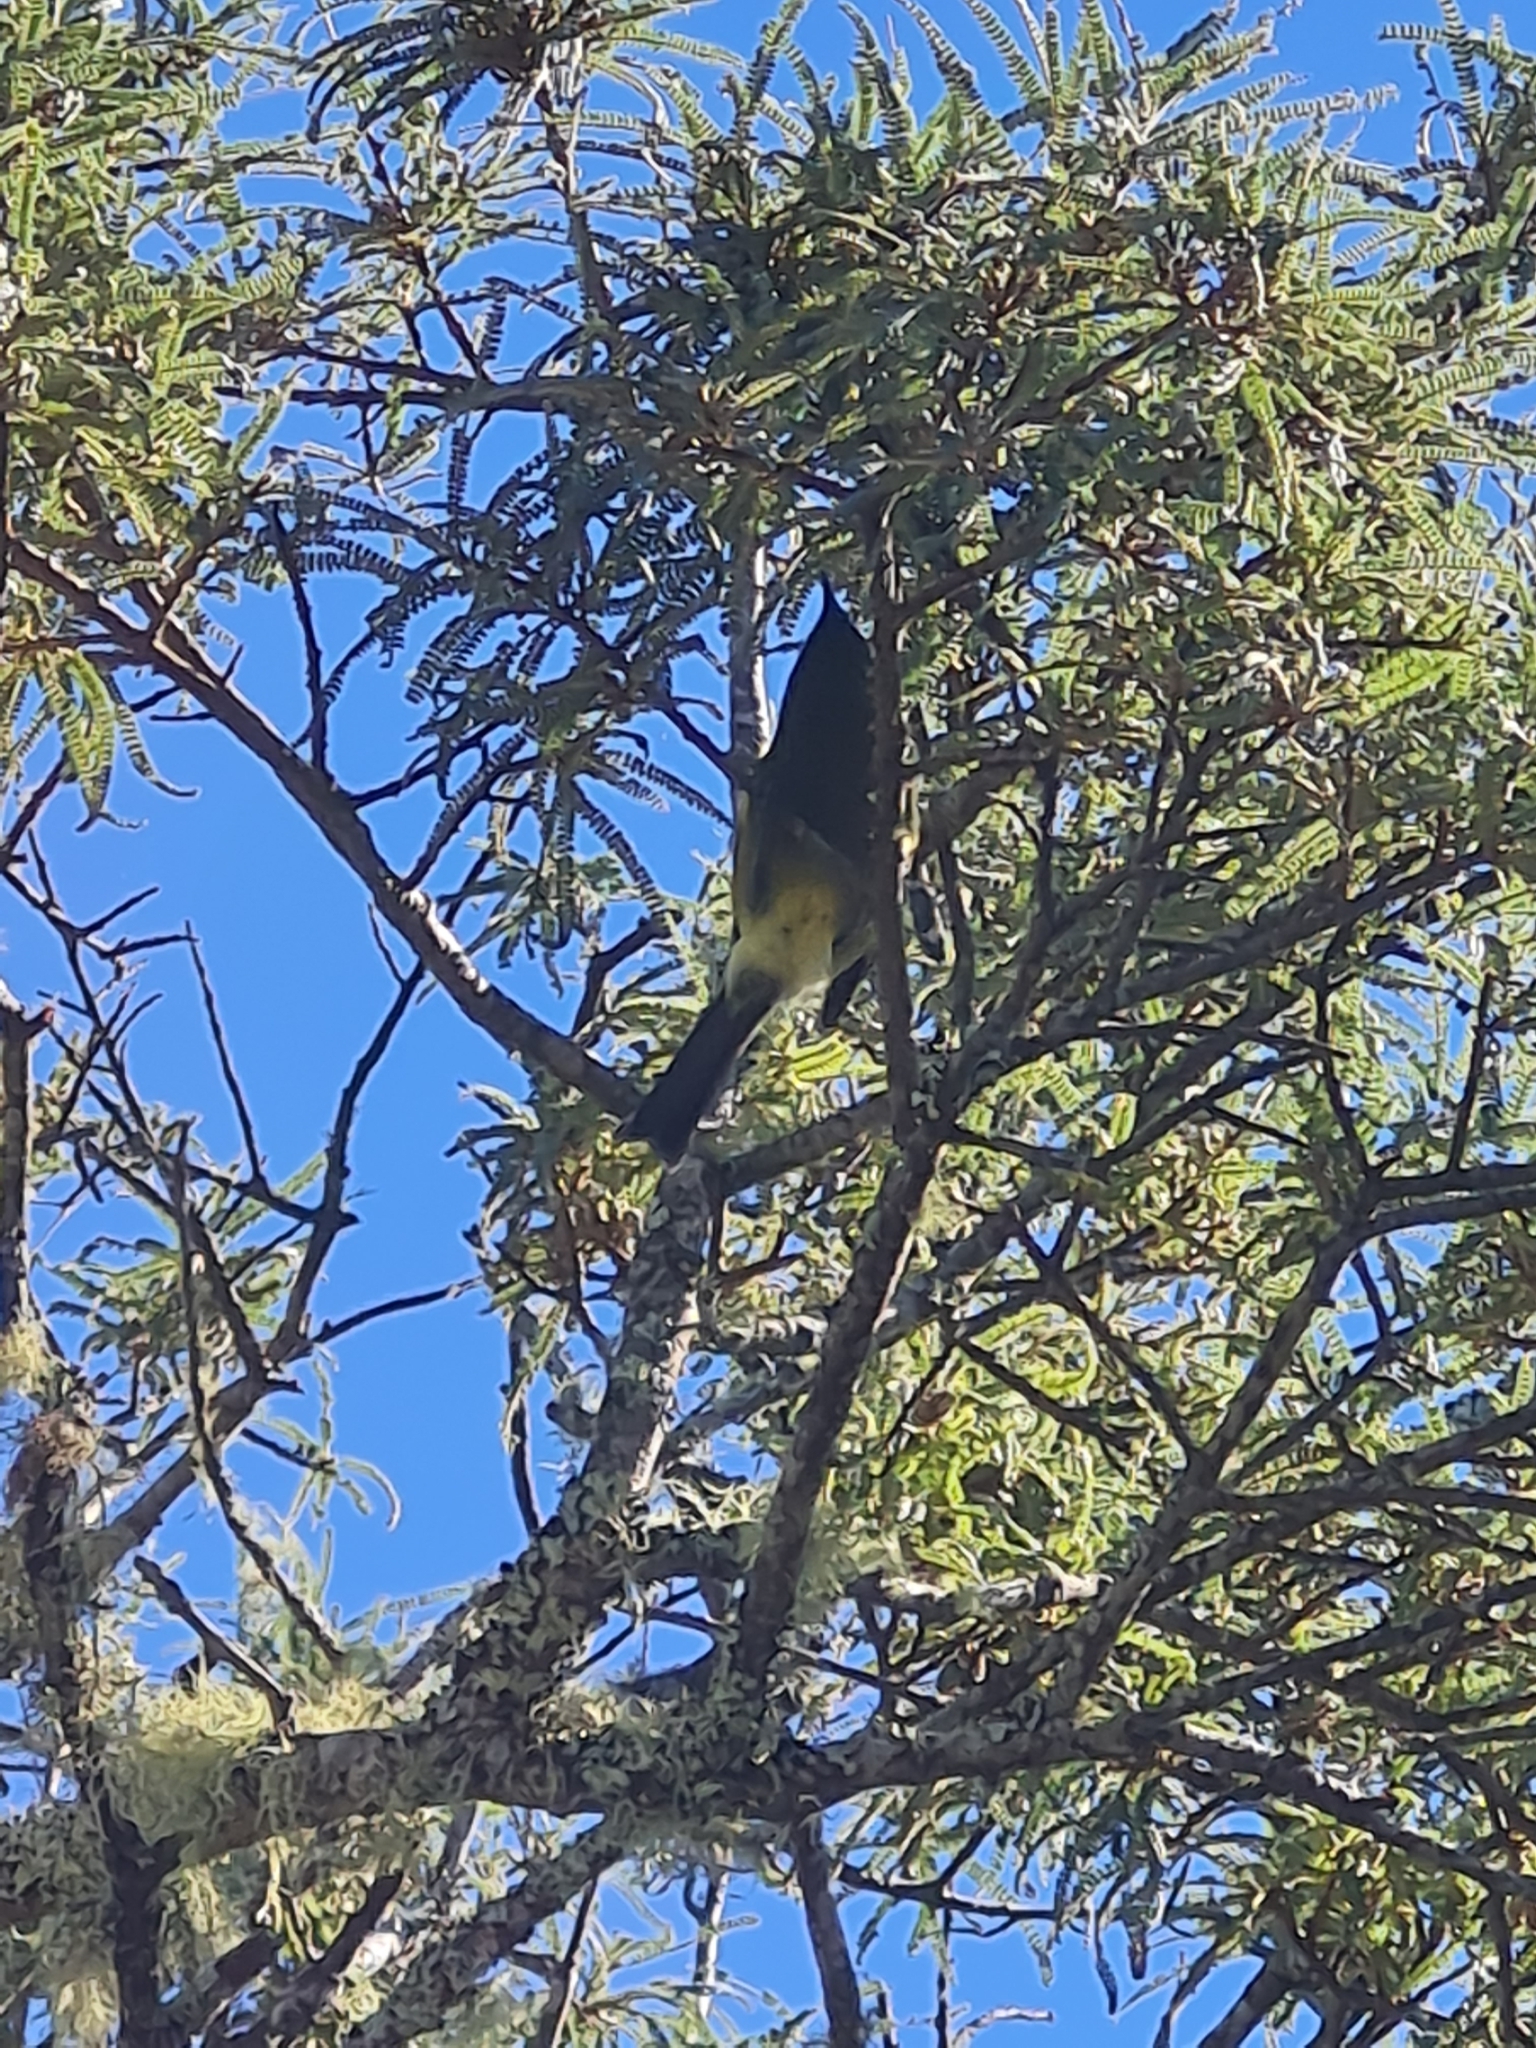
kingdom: Animalia
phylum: Chordata
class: Aves
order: Passeriformes
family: Meliphagidae
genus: Anthornis
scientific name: Anthornis melanura
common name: New zealand bellbird
